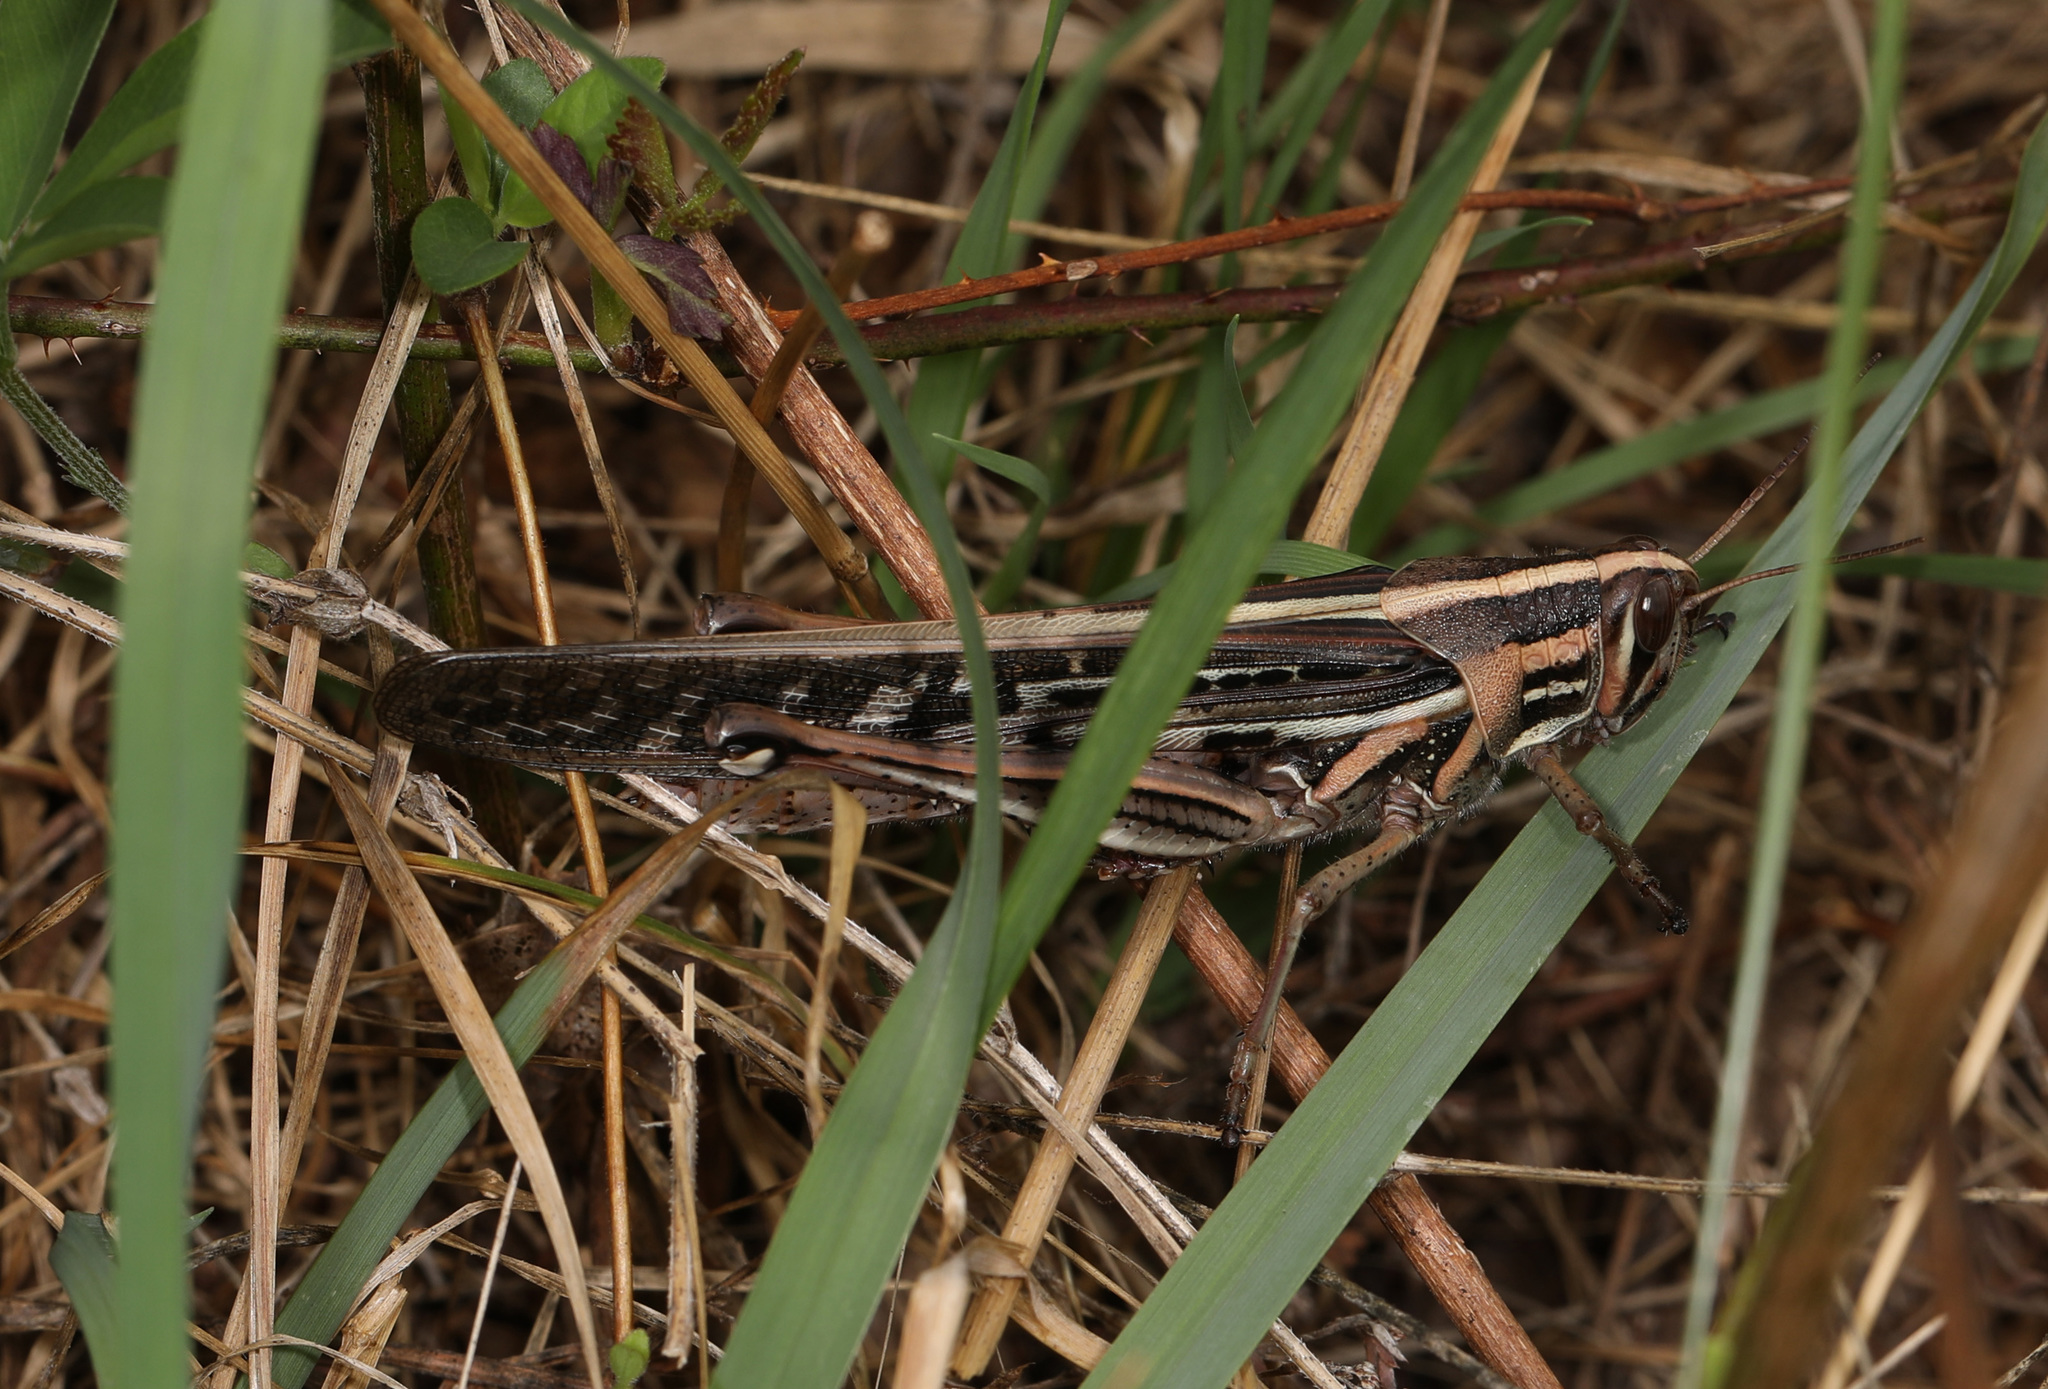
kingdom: Animalia
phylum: Arthropoda
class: Insecta
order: Orthoptera
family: Acrididae
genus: Schistocerca
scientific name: Schistocerca americana
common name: American bird locust
